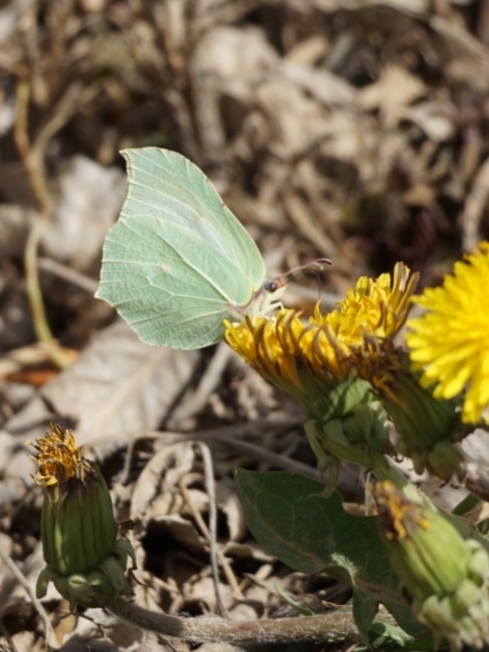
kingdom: Animalia
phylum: Arthropoda
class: Insecta
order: Lepidoptera
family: Pieridae
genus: Gonepteryx
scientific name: Gonepteryx rhamni
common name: Brimstone
